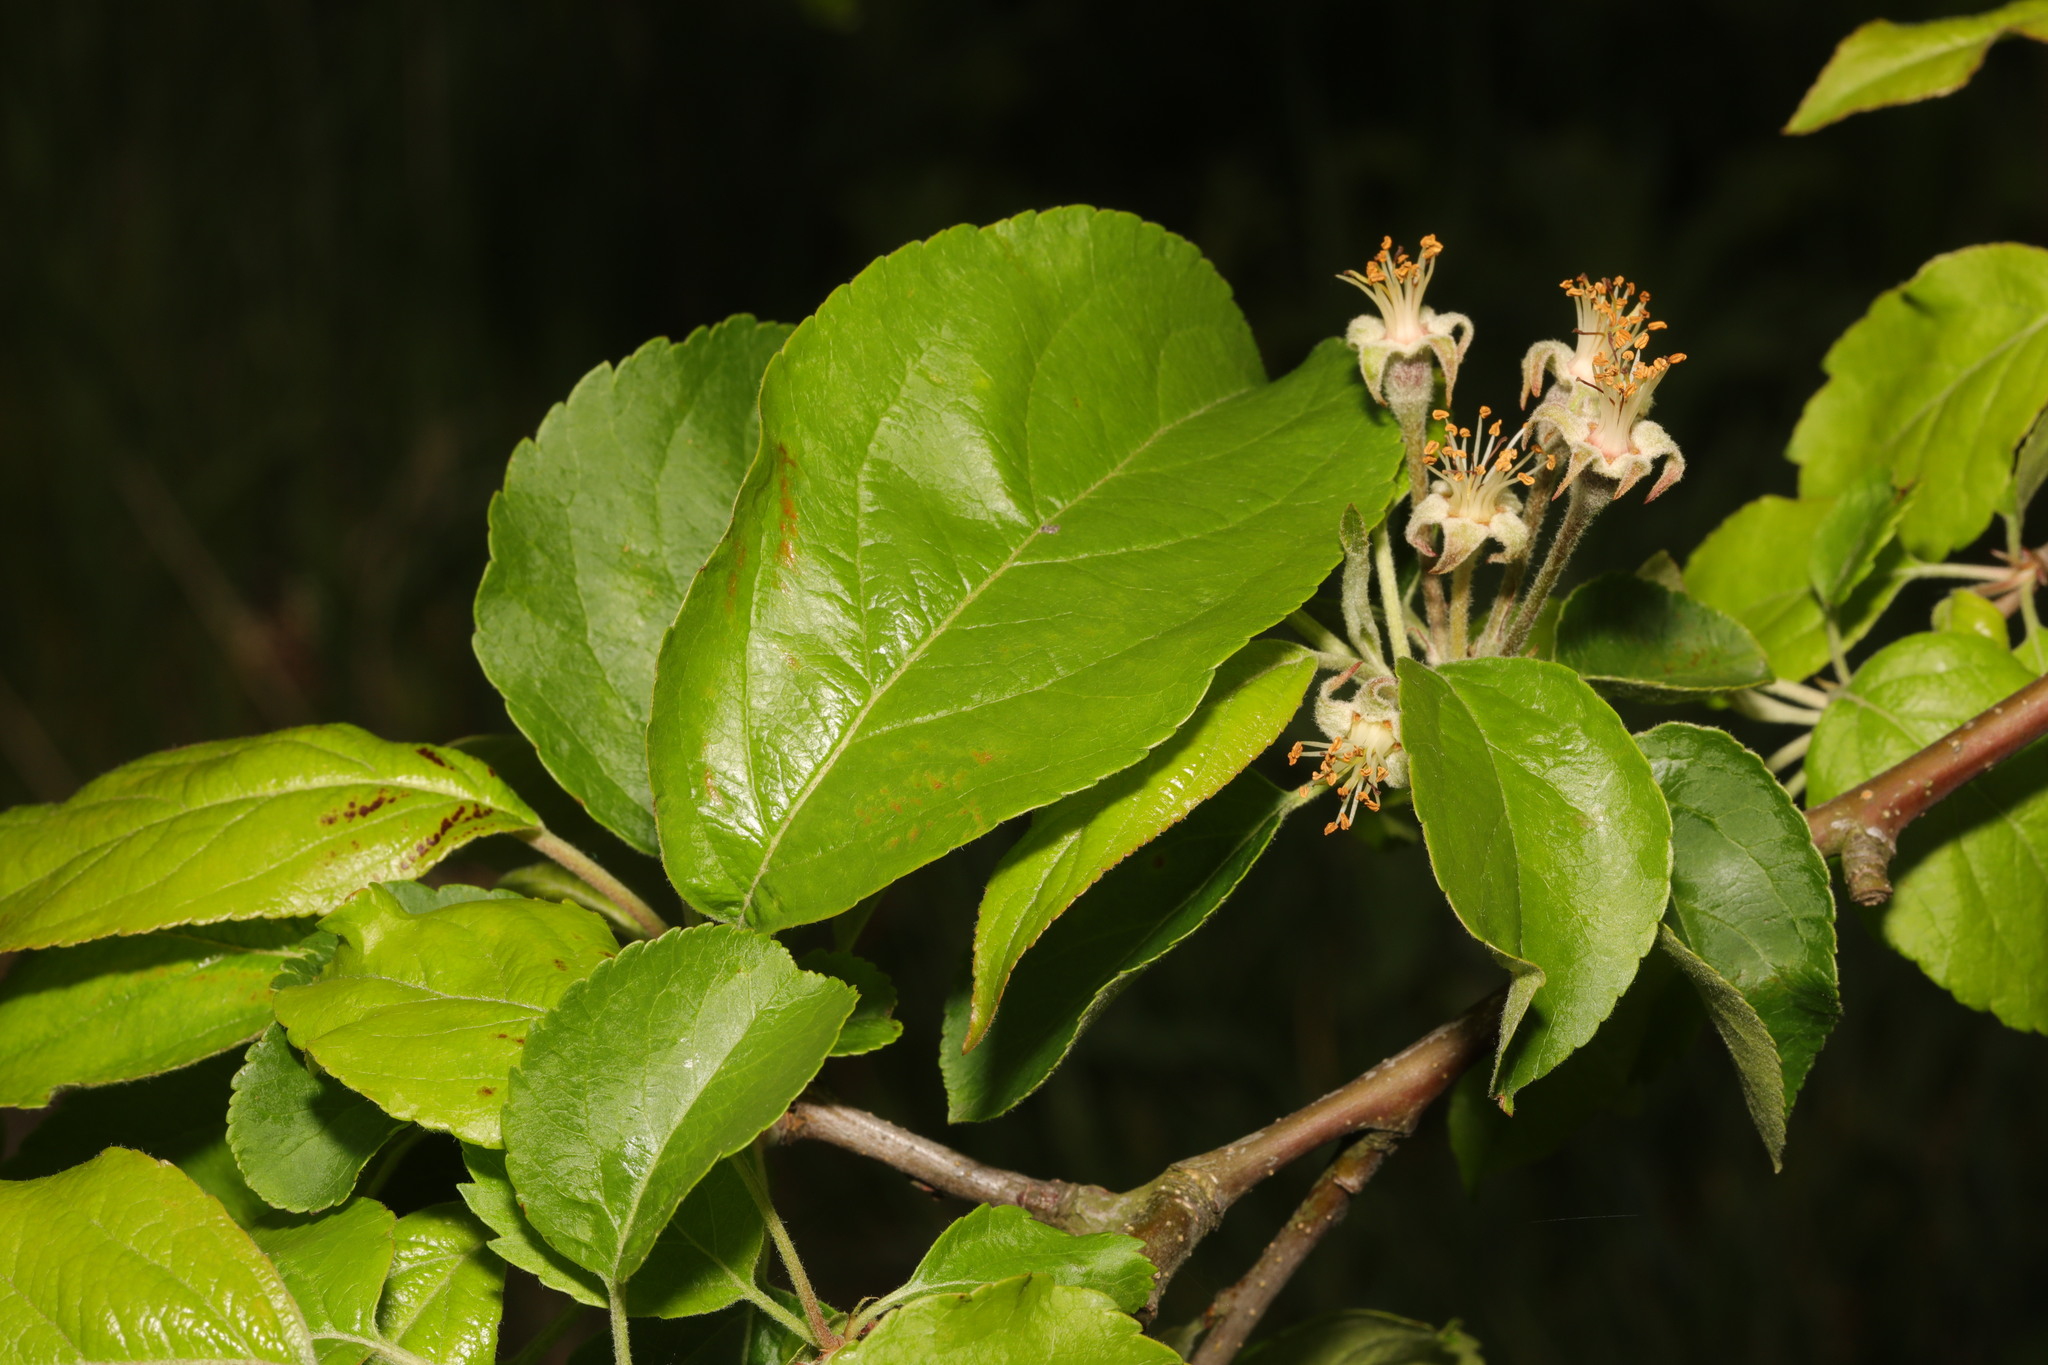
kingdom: Plantae
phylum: Tracheophyta
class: Magnoliopsida
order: Rosales
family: Rosaceae
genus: Malus
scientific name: Malus domestica
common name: Apple
